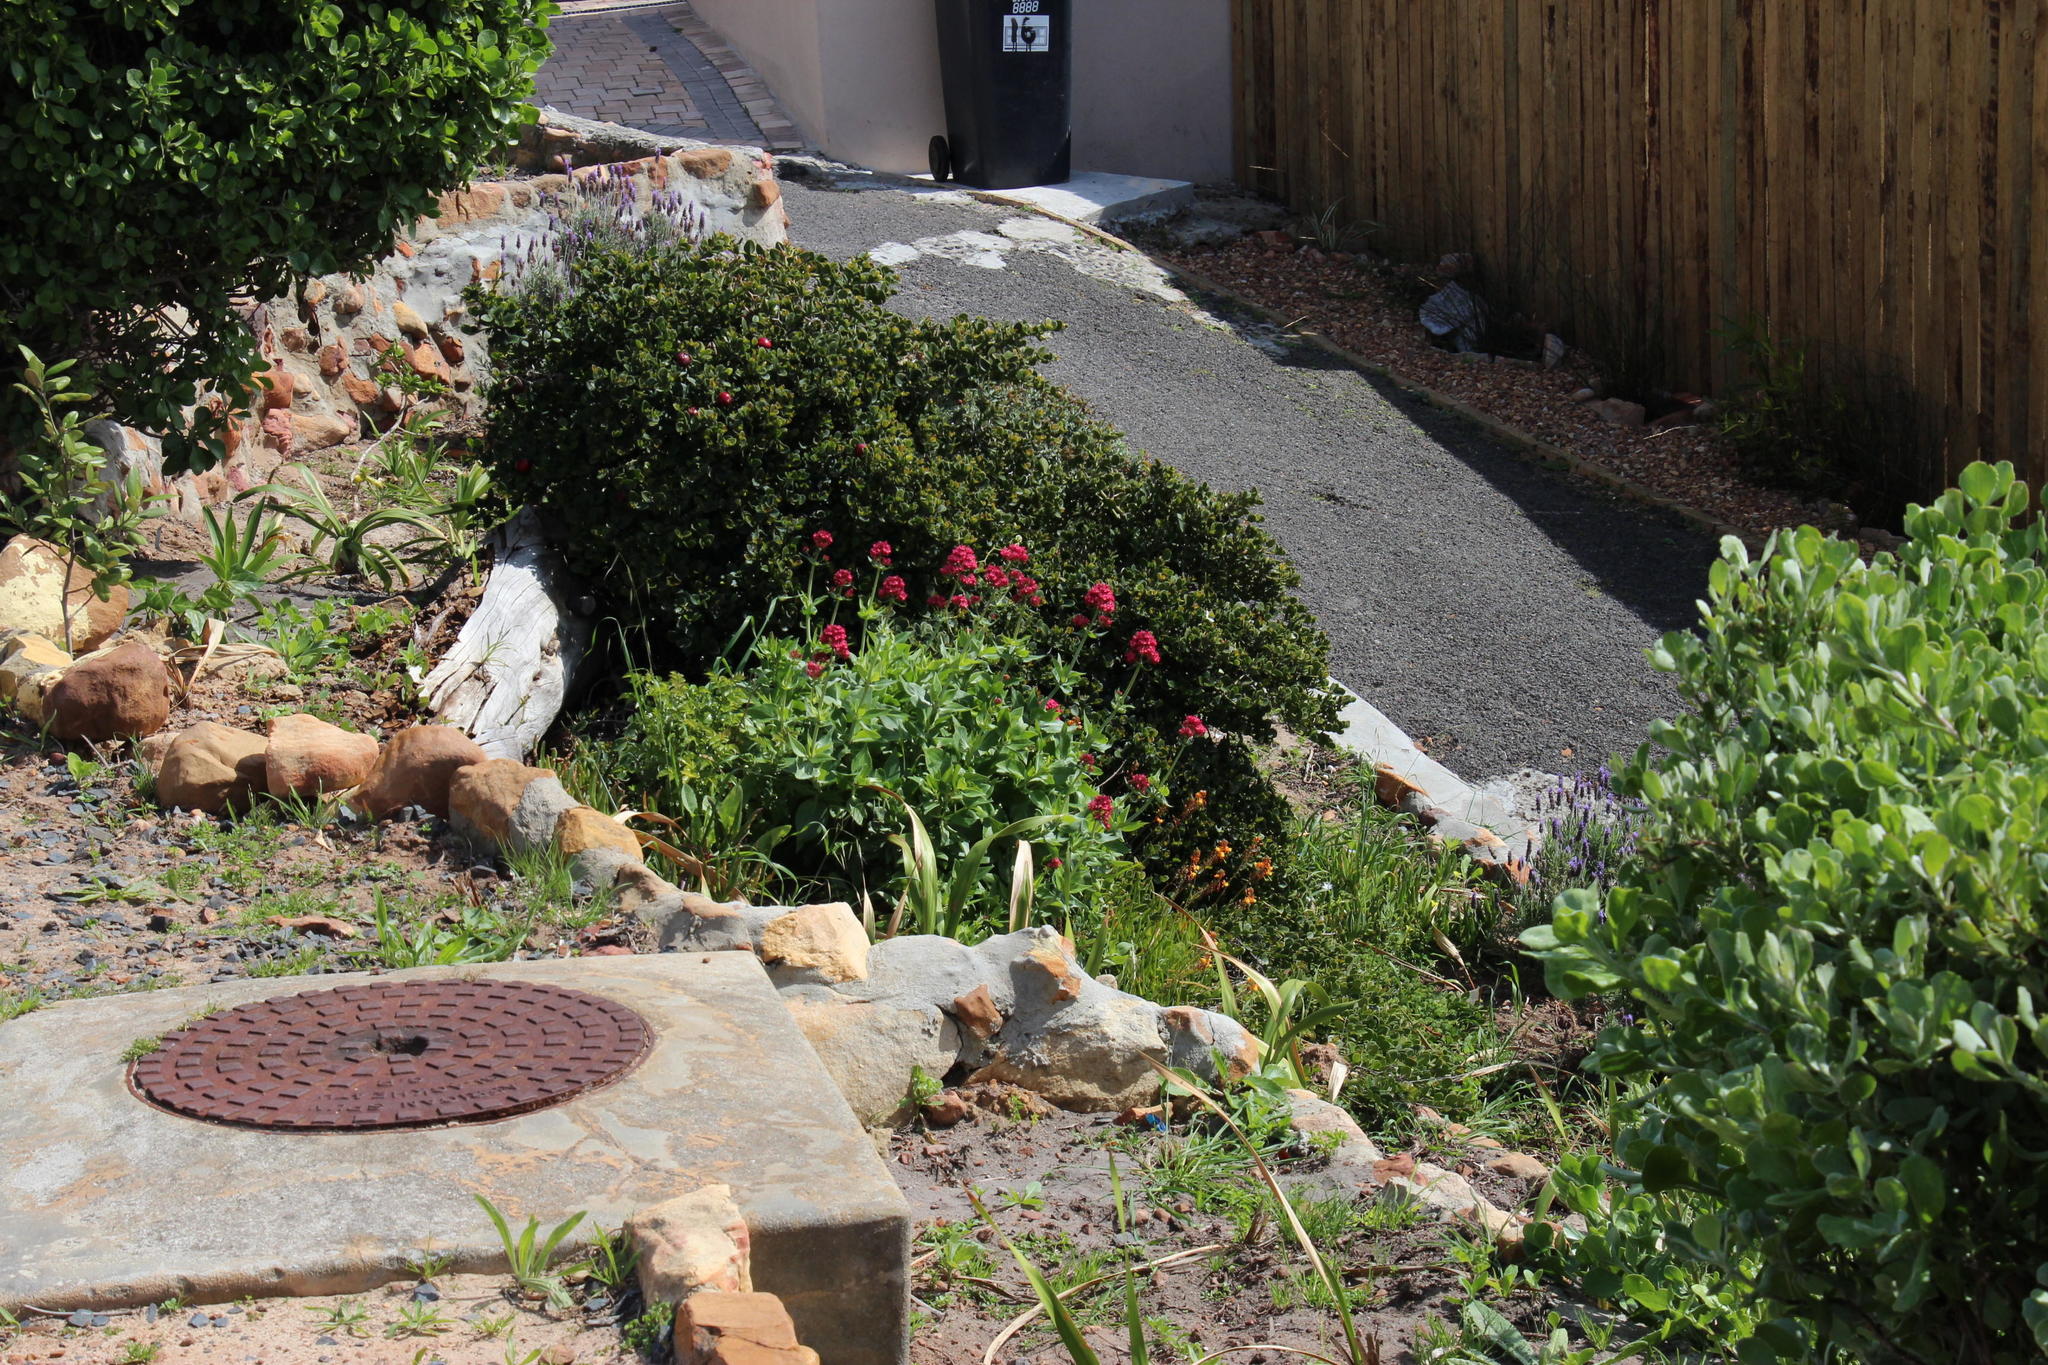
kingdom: Plantae
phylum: Tracheophyta
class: Magnoliopsida
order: Dipsacales
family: Caprifoliaceae
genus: Centranthus
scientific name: Centranthus ruber
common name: Red valerian
